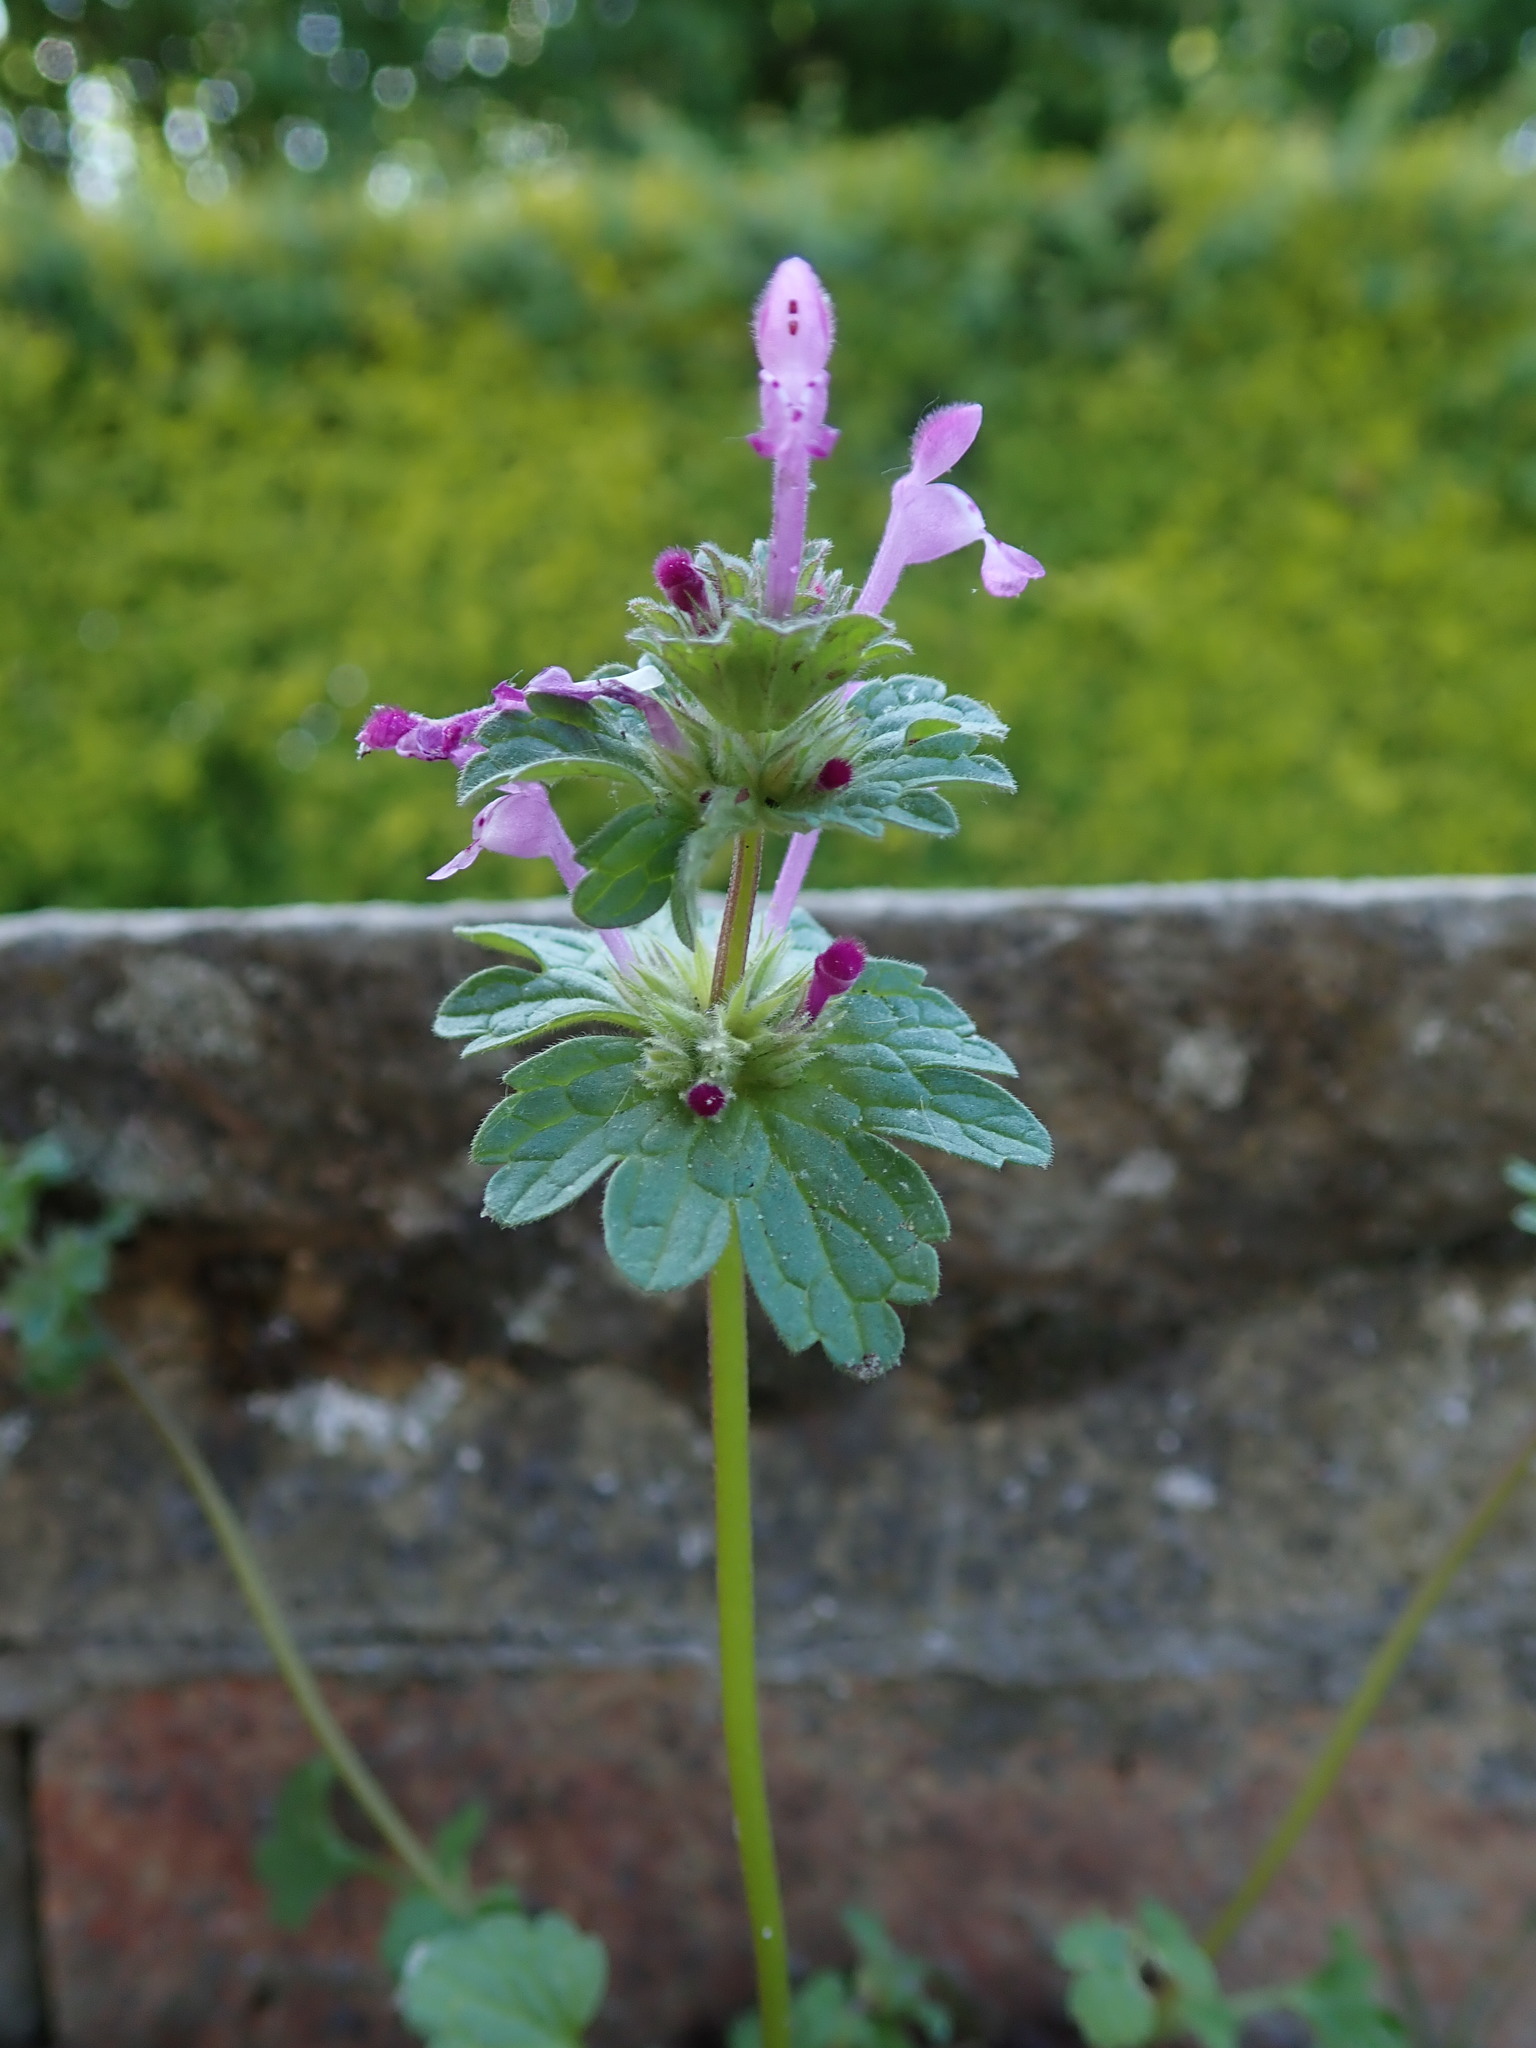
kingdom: Plantae
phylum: Tracheophyta
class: Magnoliopsida
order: Lamiales
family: Lamiaceae
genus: Lamium
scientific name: Lamium amplexicaule
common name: Henbit dead-nettle
